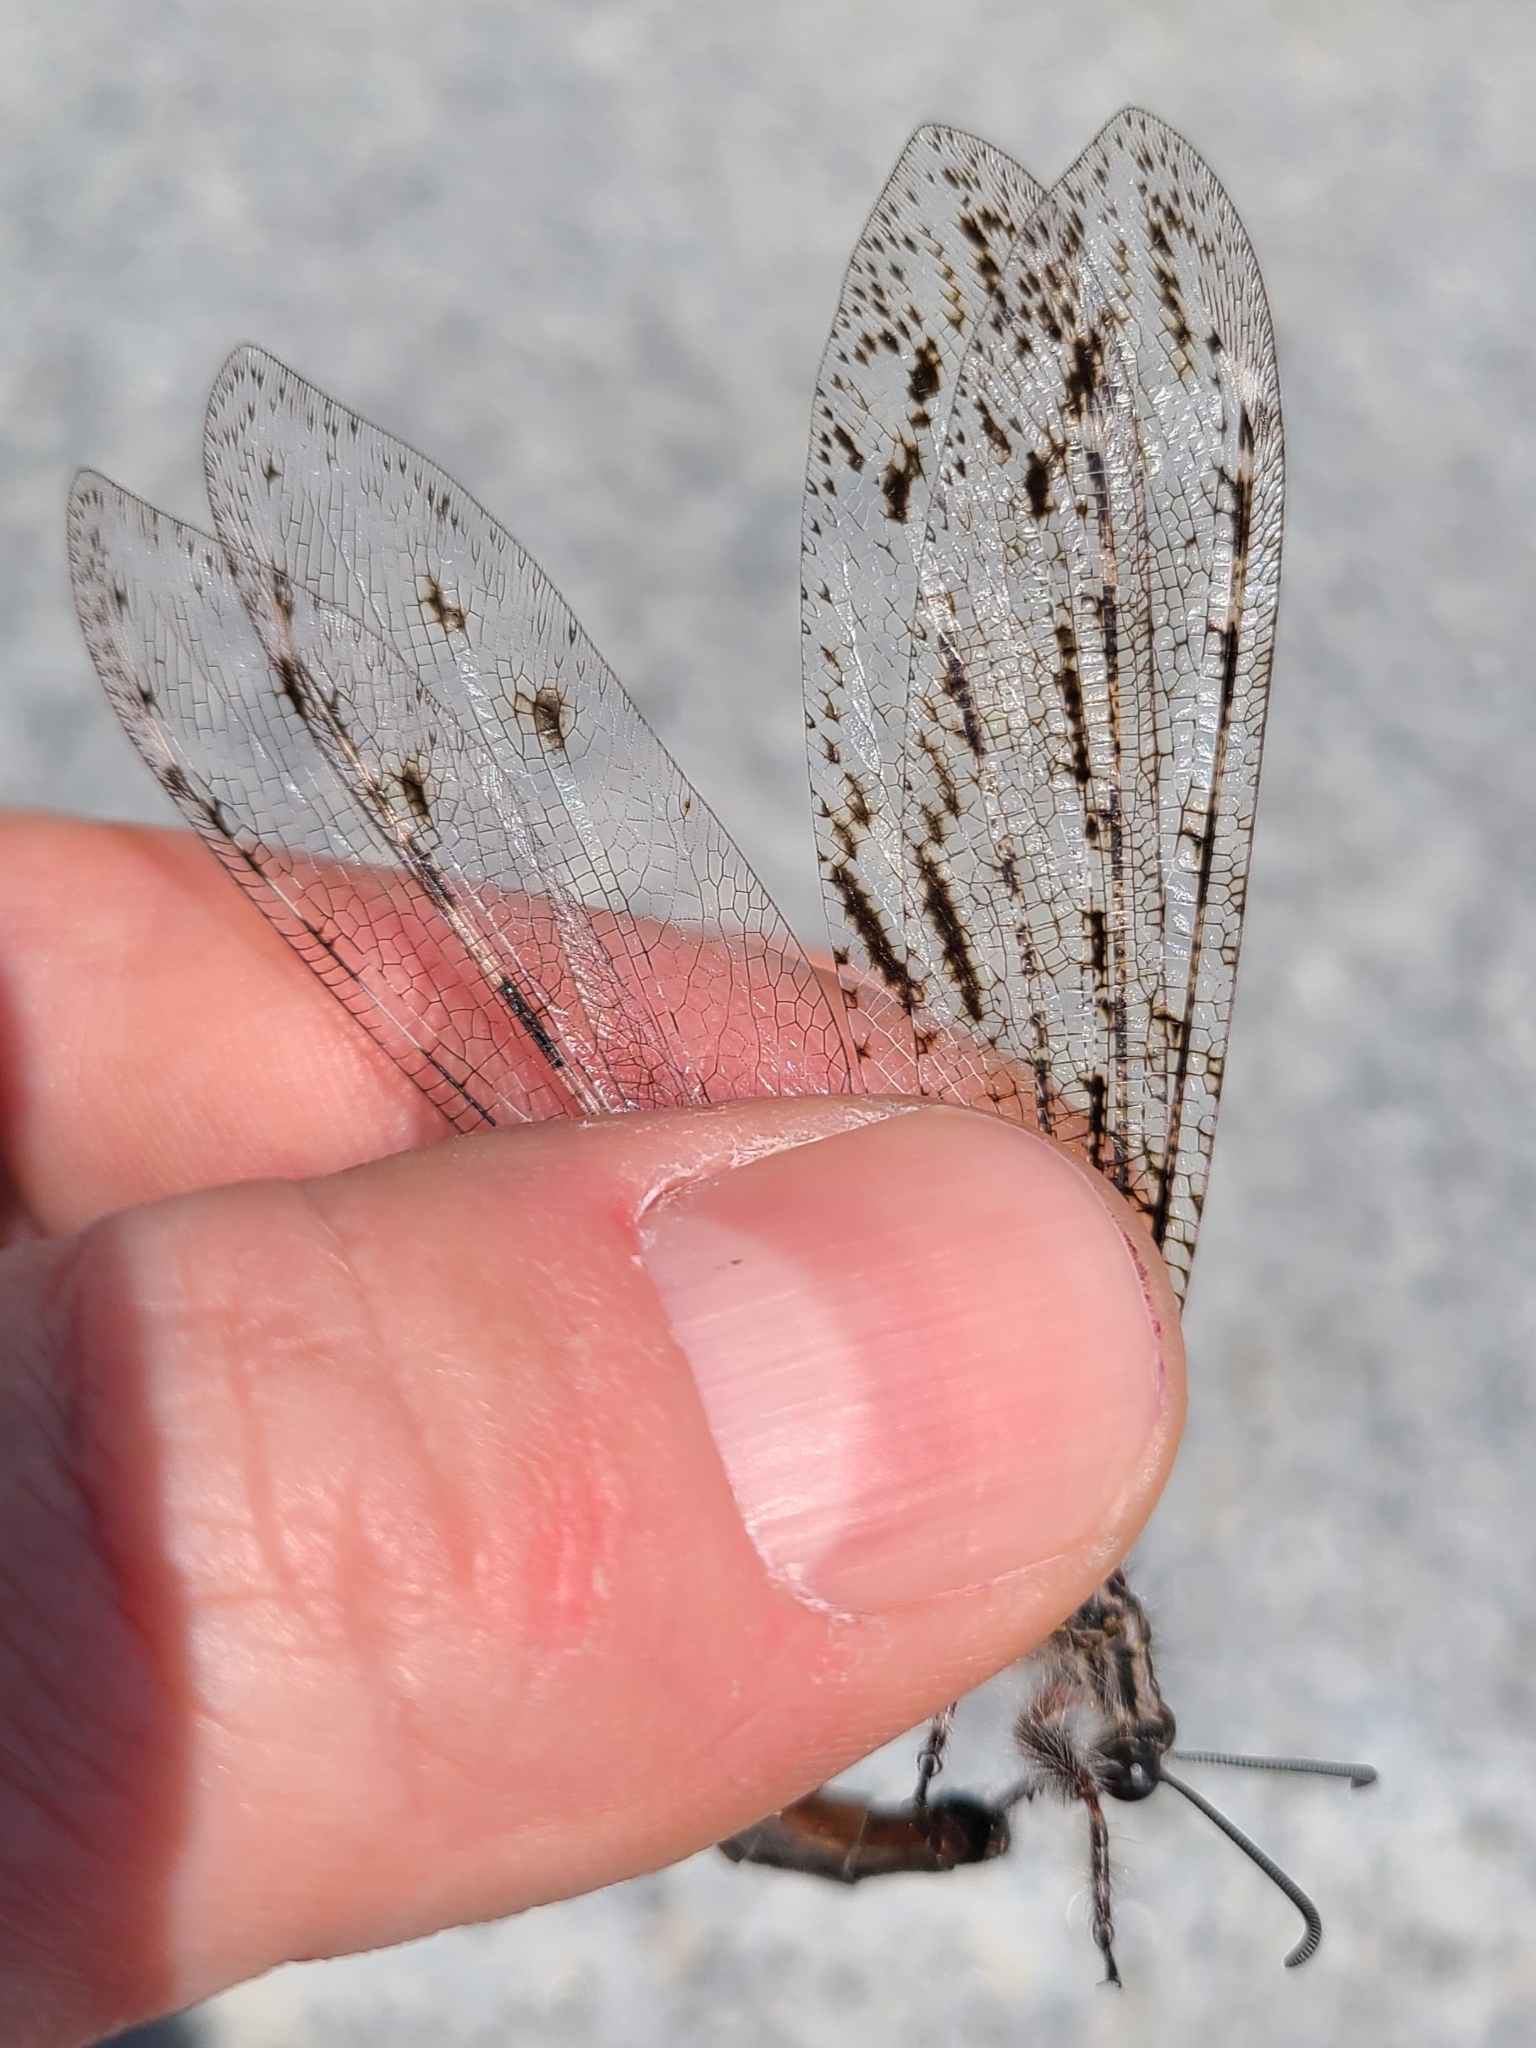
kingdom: Animalia
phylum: Arthropoda
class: Insecta
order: Neuroptera
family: Myrmeleontidae
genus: Vella
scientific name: Vella americana
